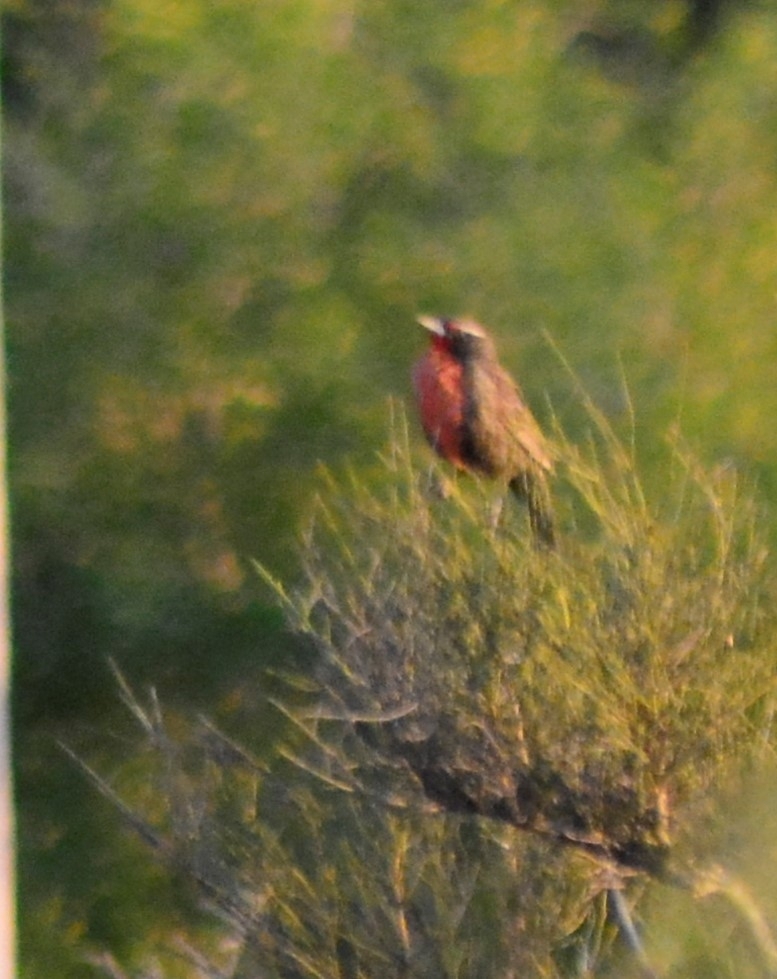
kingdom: Animalia
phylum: Chordata
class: Aves
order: Passeriformes
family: Icteridae
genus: Sturnella
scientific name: Sturnella loyca
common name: Long-tailed meadowlark
